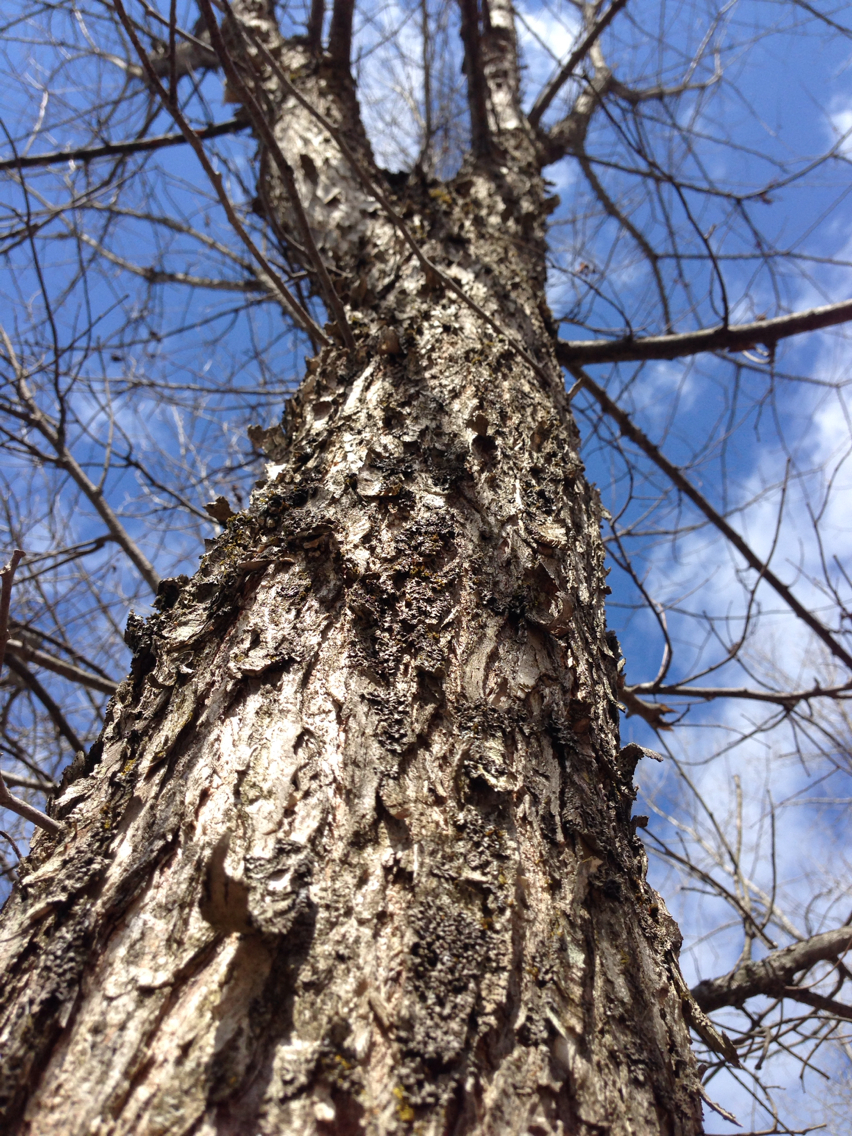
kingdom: Plantae
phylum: Tracheophyta
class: Magnoliopsida
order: Rosales
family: Ulmaceae
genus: Ulmus
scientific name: Ulmus americana
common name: American elm
